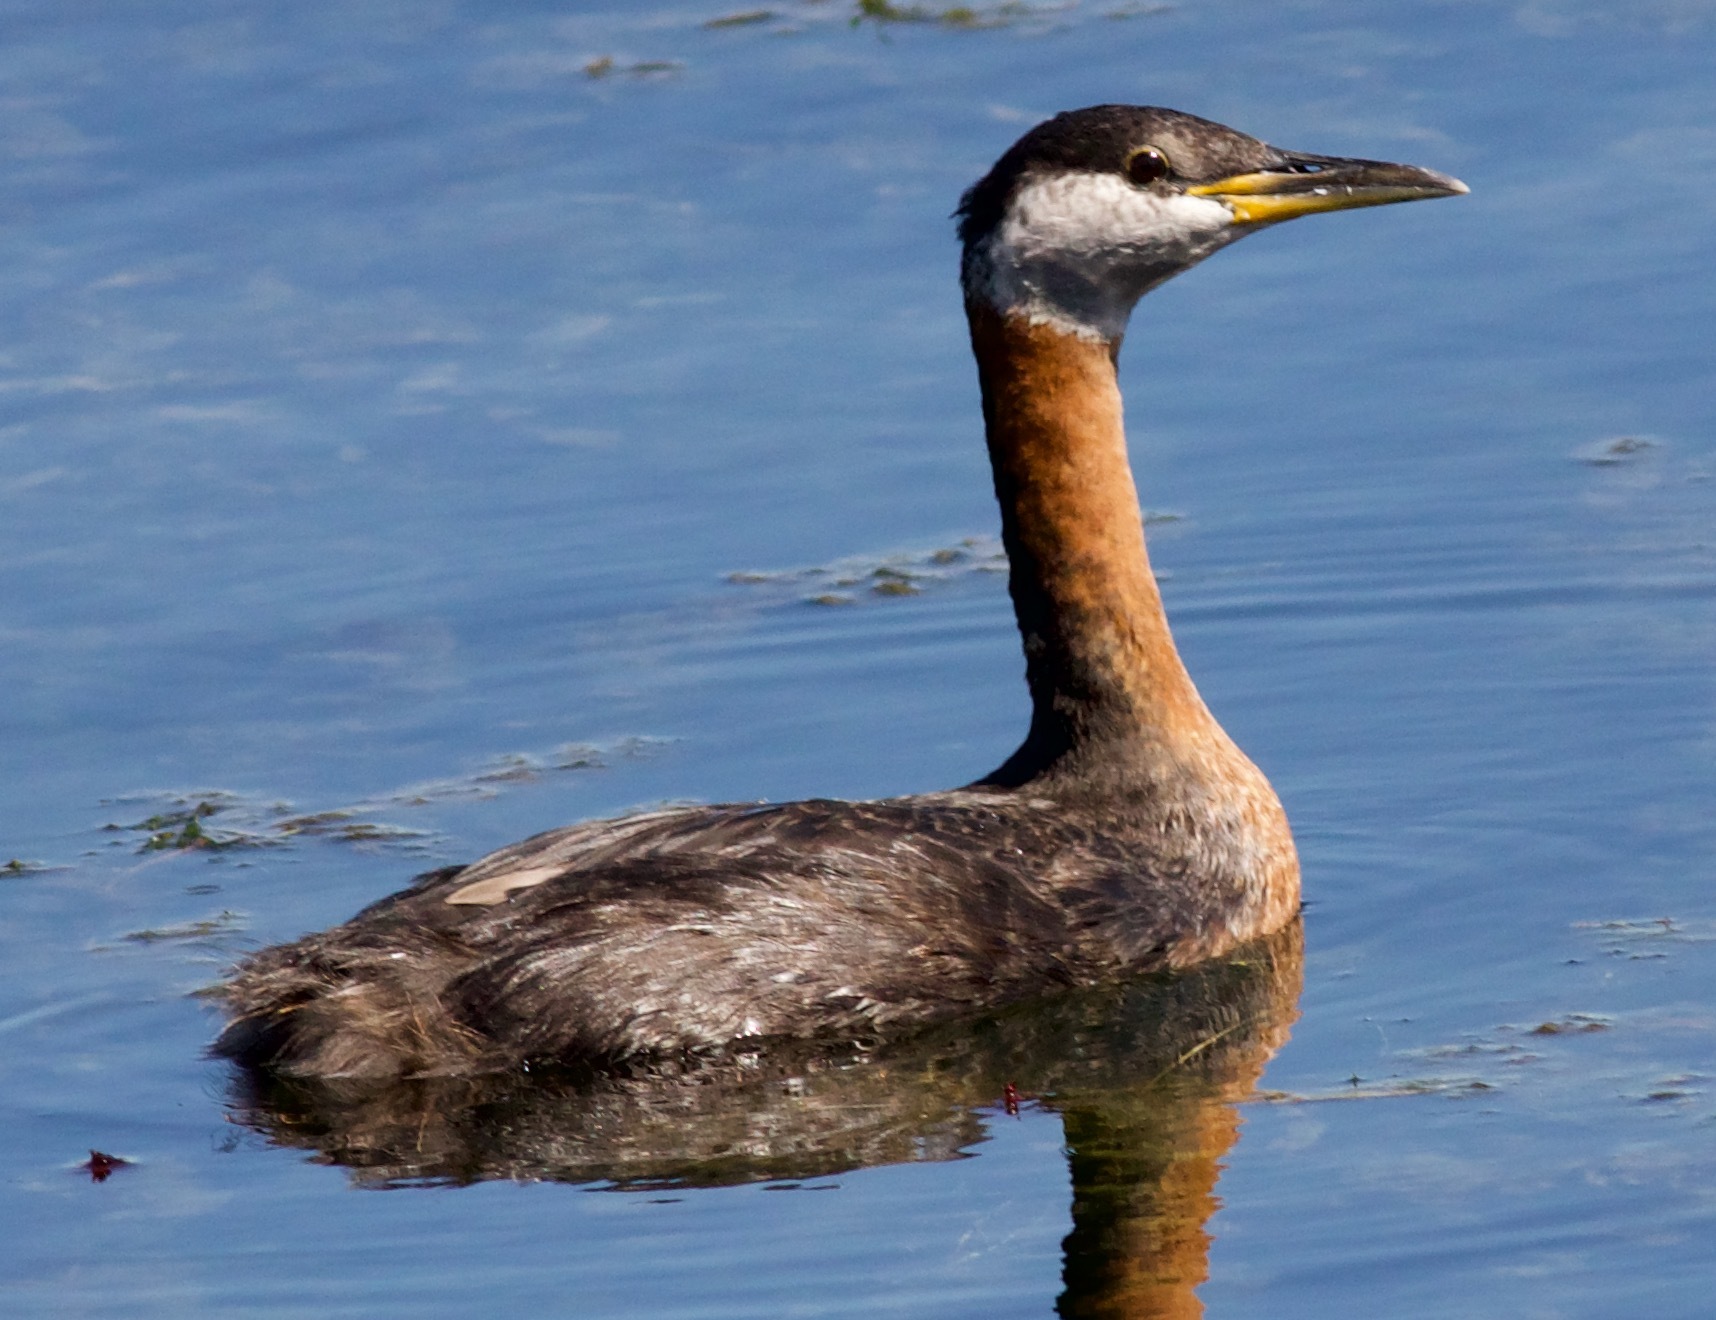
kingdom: Animalia
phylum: Chordata
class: Aves
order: Podicipediformes
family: Podicipedidae
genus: Podiceps
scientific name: Podiceps grisegena
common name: Red-necked grebe
